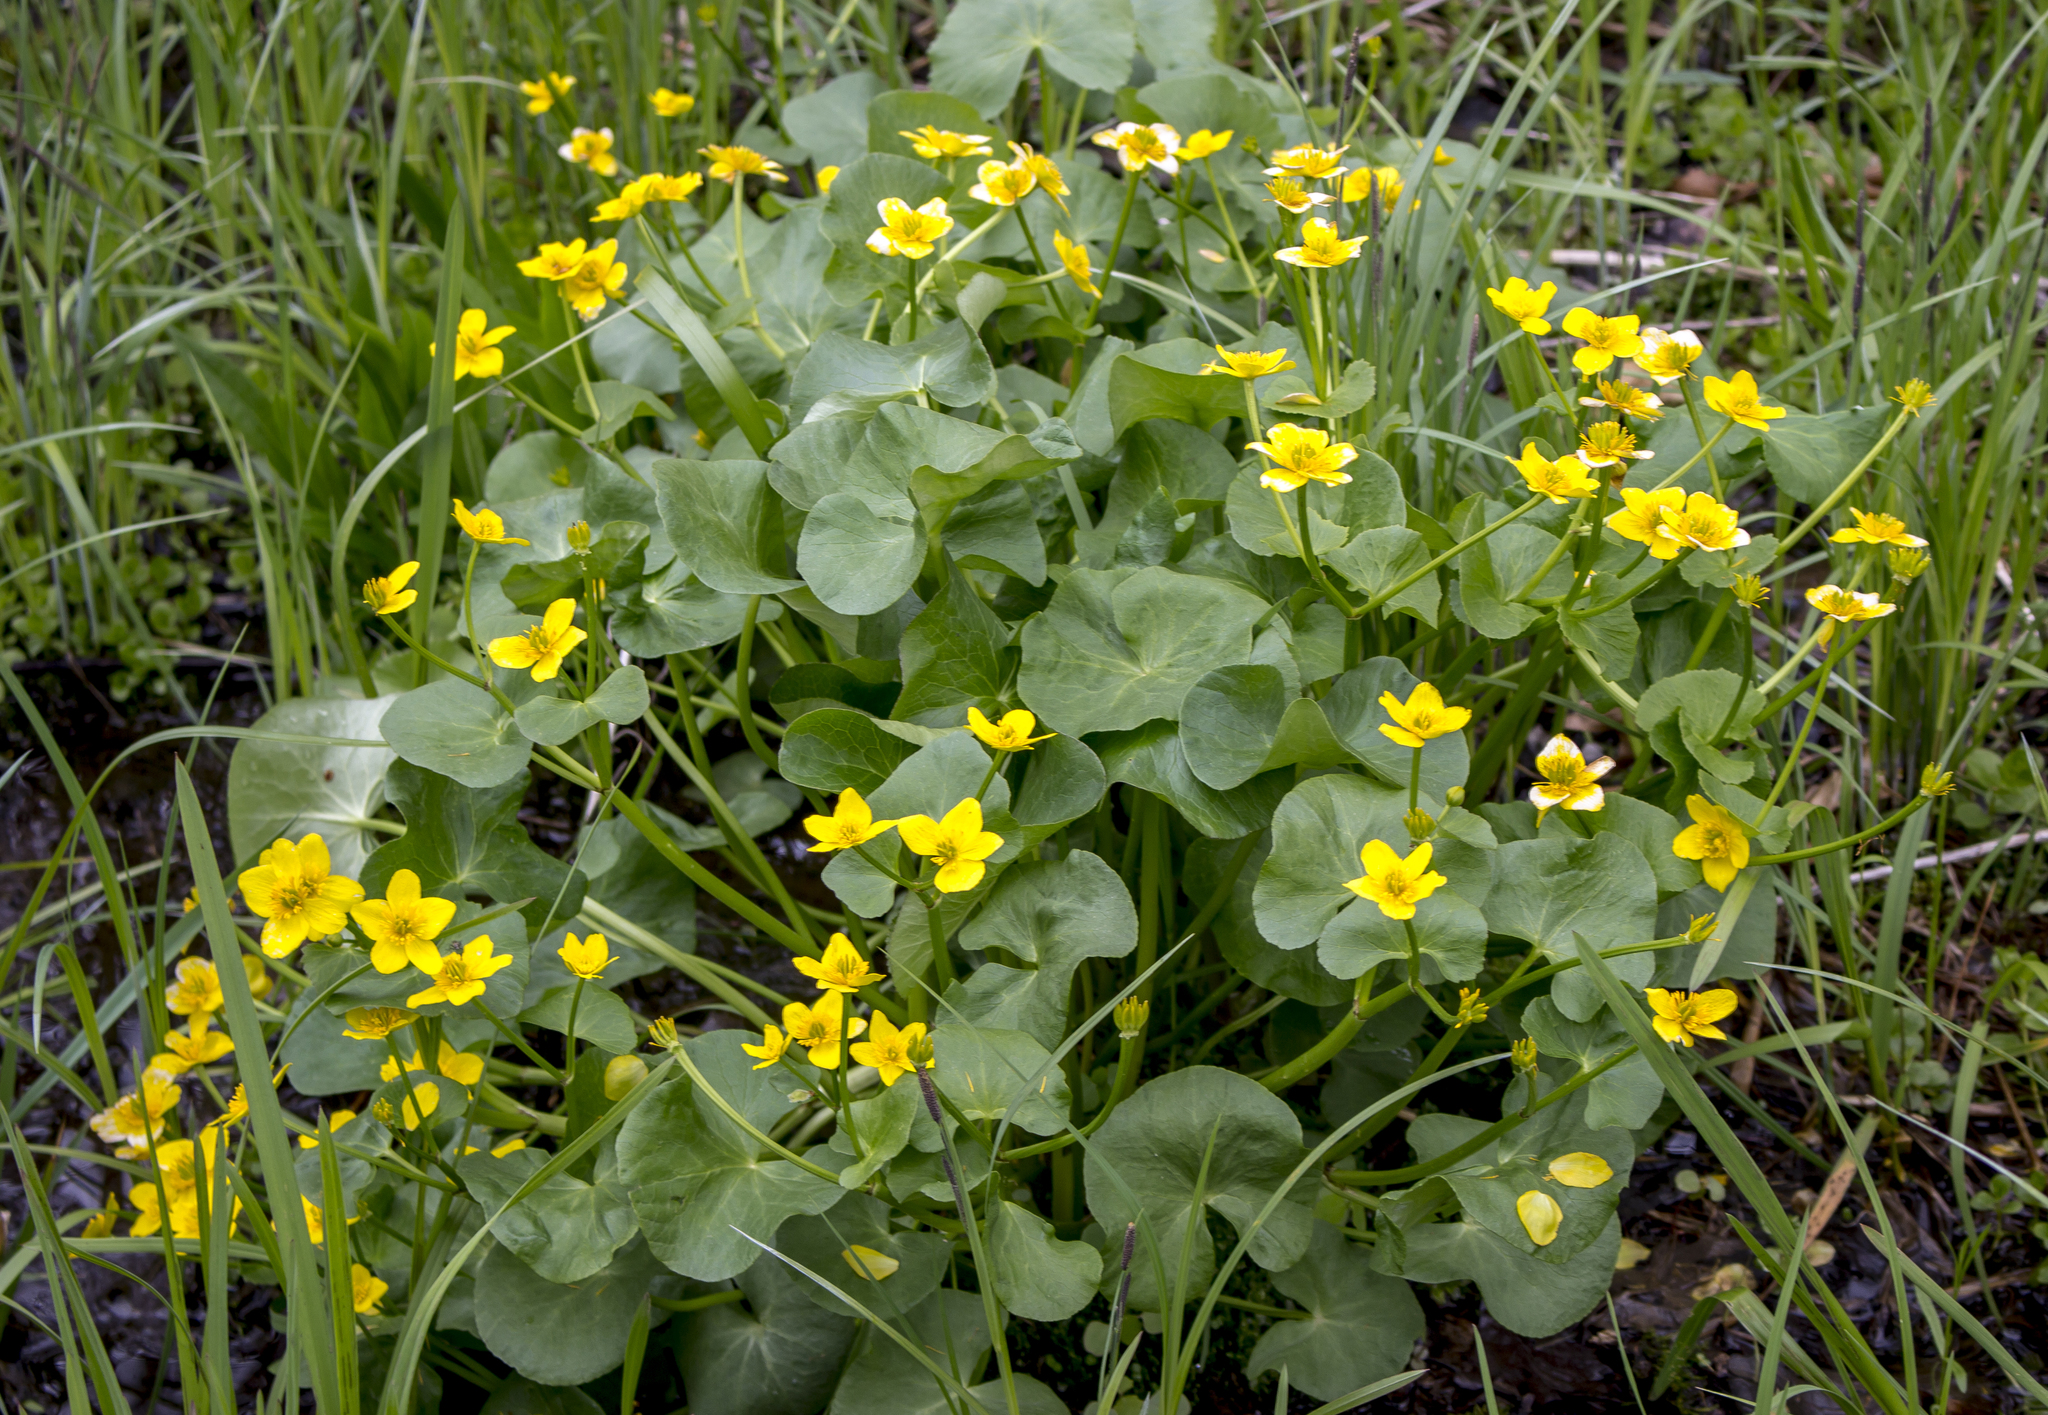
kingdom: Plantae
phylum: Tracheophyta
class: Magnoliopsida
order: Ranunculales
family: Ranunculaceae
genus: Caltha
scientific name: Caltha palustris
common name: Marsh marigold
